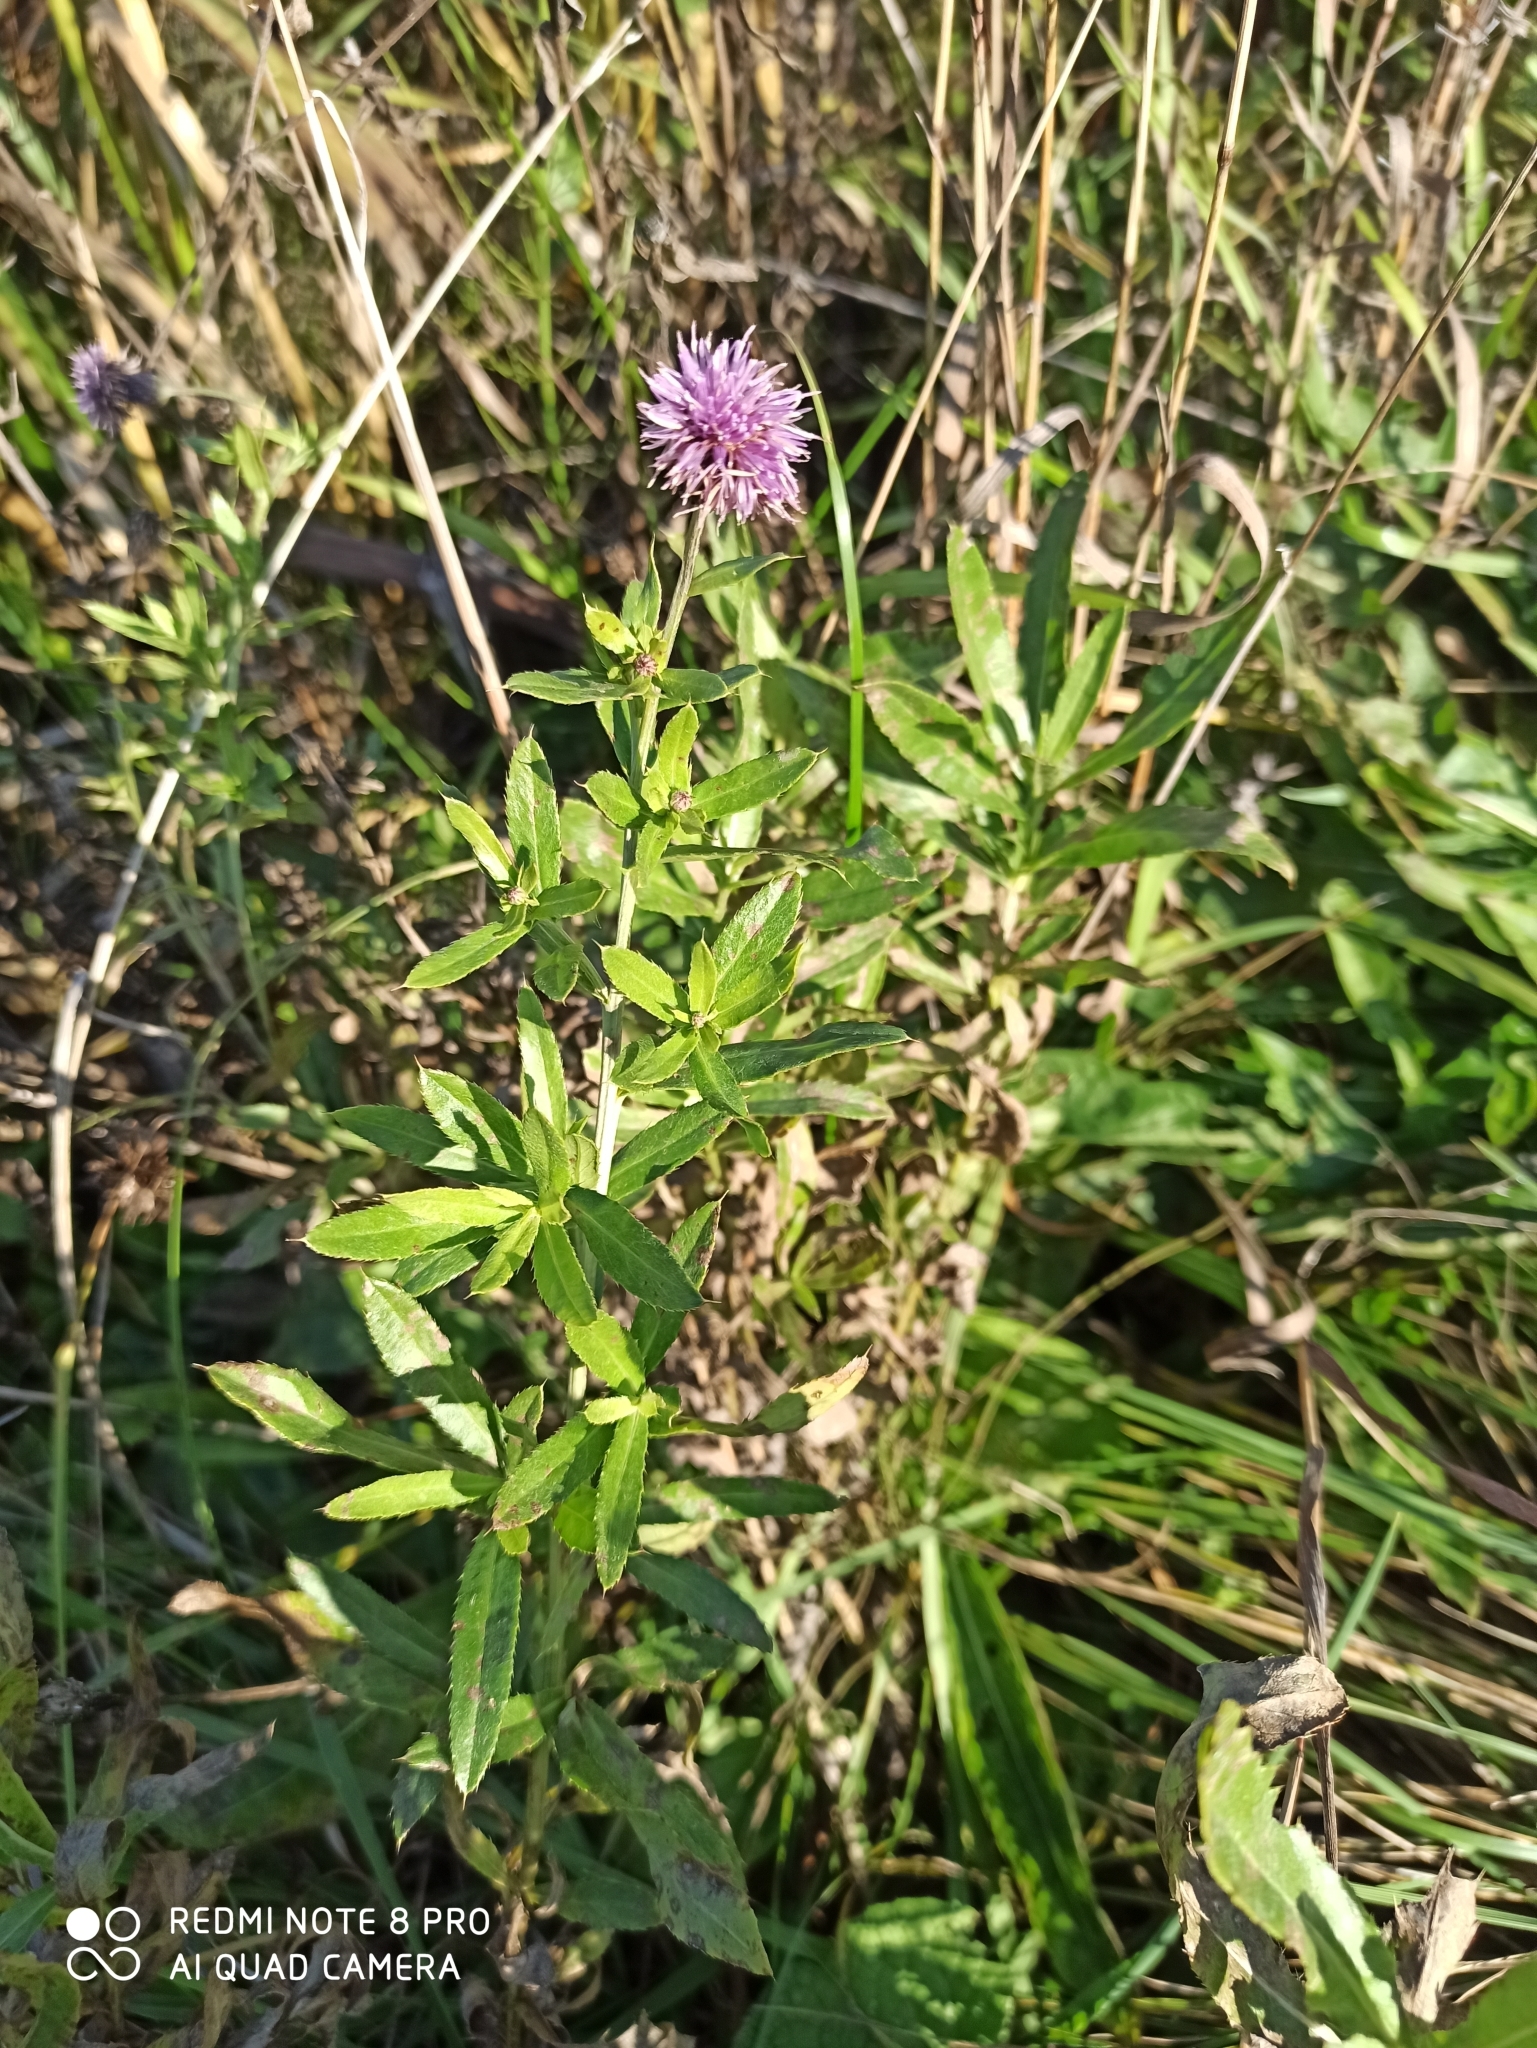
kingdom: Plantae
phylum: Tracheophyta
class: Magnoliopsida
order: Asterales
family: Asteraceae
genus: Cirsium
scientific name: Cirsium arvense
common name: Creeping thistle
